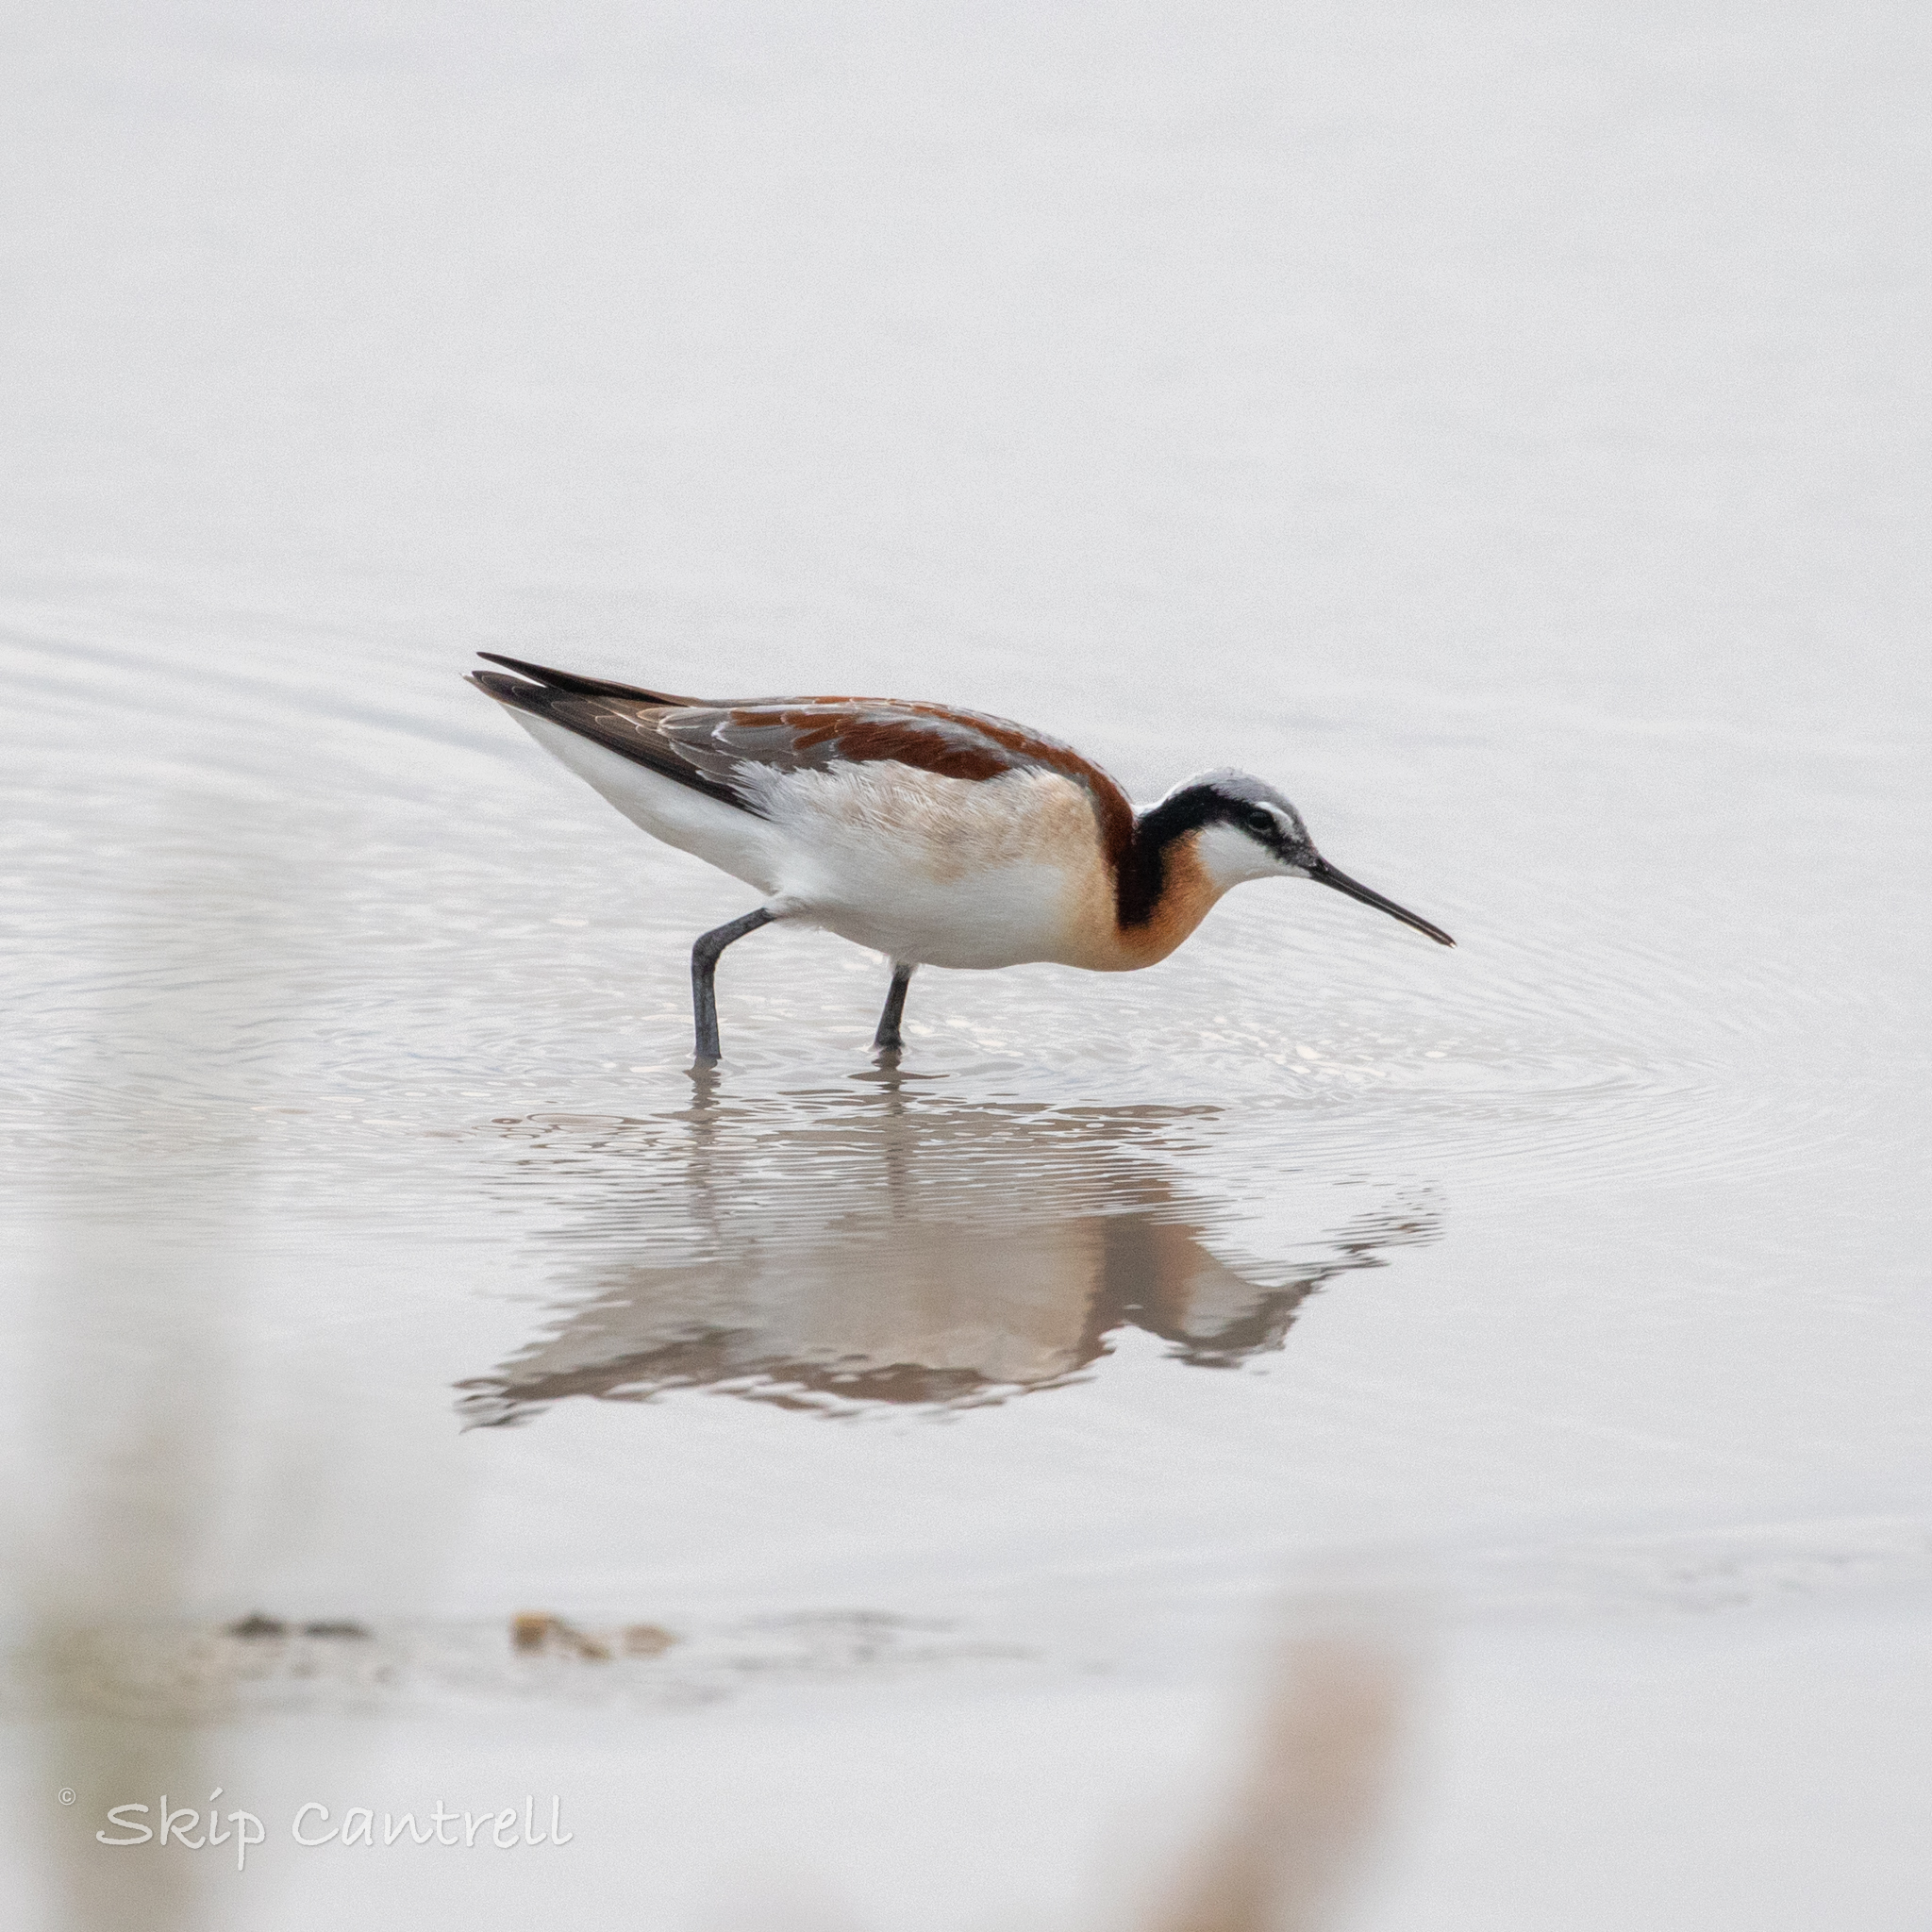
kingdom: Animalia
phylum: Chordata
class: Aves
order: Charadriiformes
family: Scolopacidae
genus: Phalaropus
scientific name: Phalaropus tricolor
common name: Wilson's phalarope
